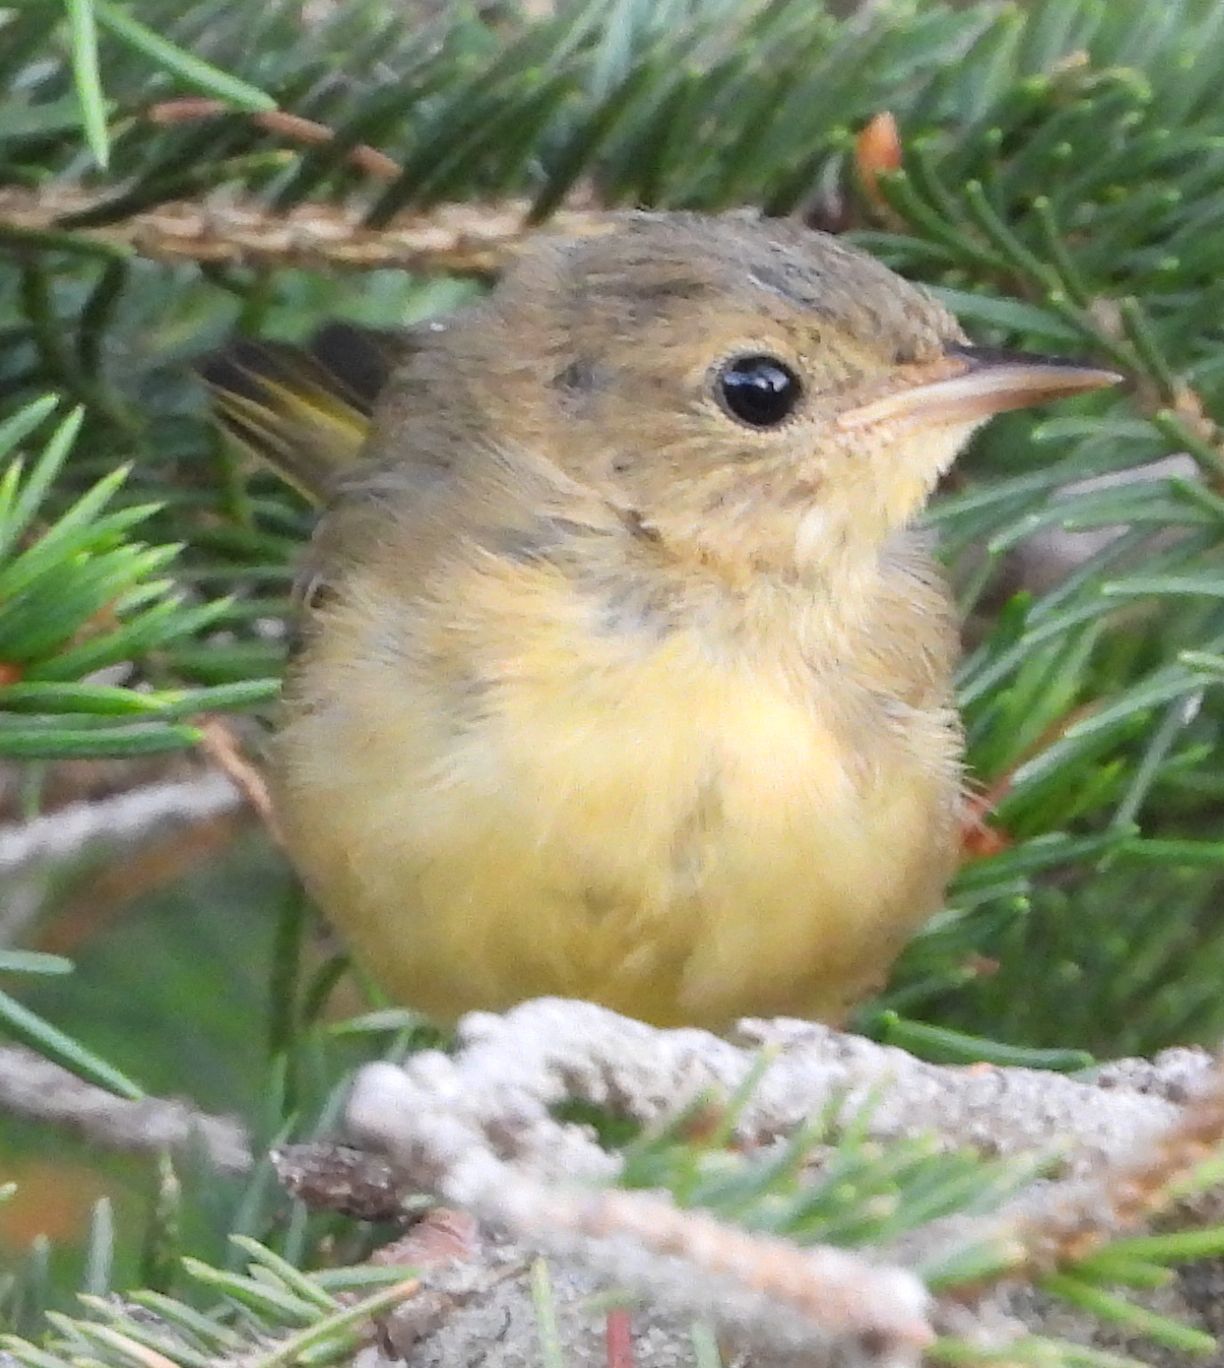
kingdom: Animalia
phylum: Chordata
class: Aves
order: Passeriformes
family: Parulidae
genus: Geothlypis
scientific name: Geothlypis trichas
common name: Common yellowthroat
